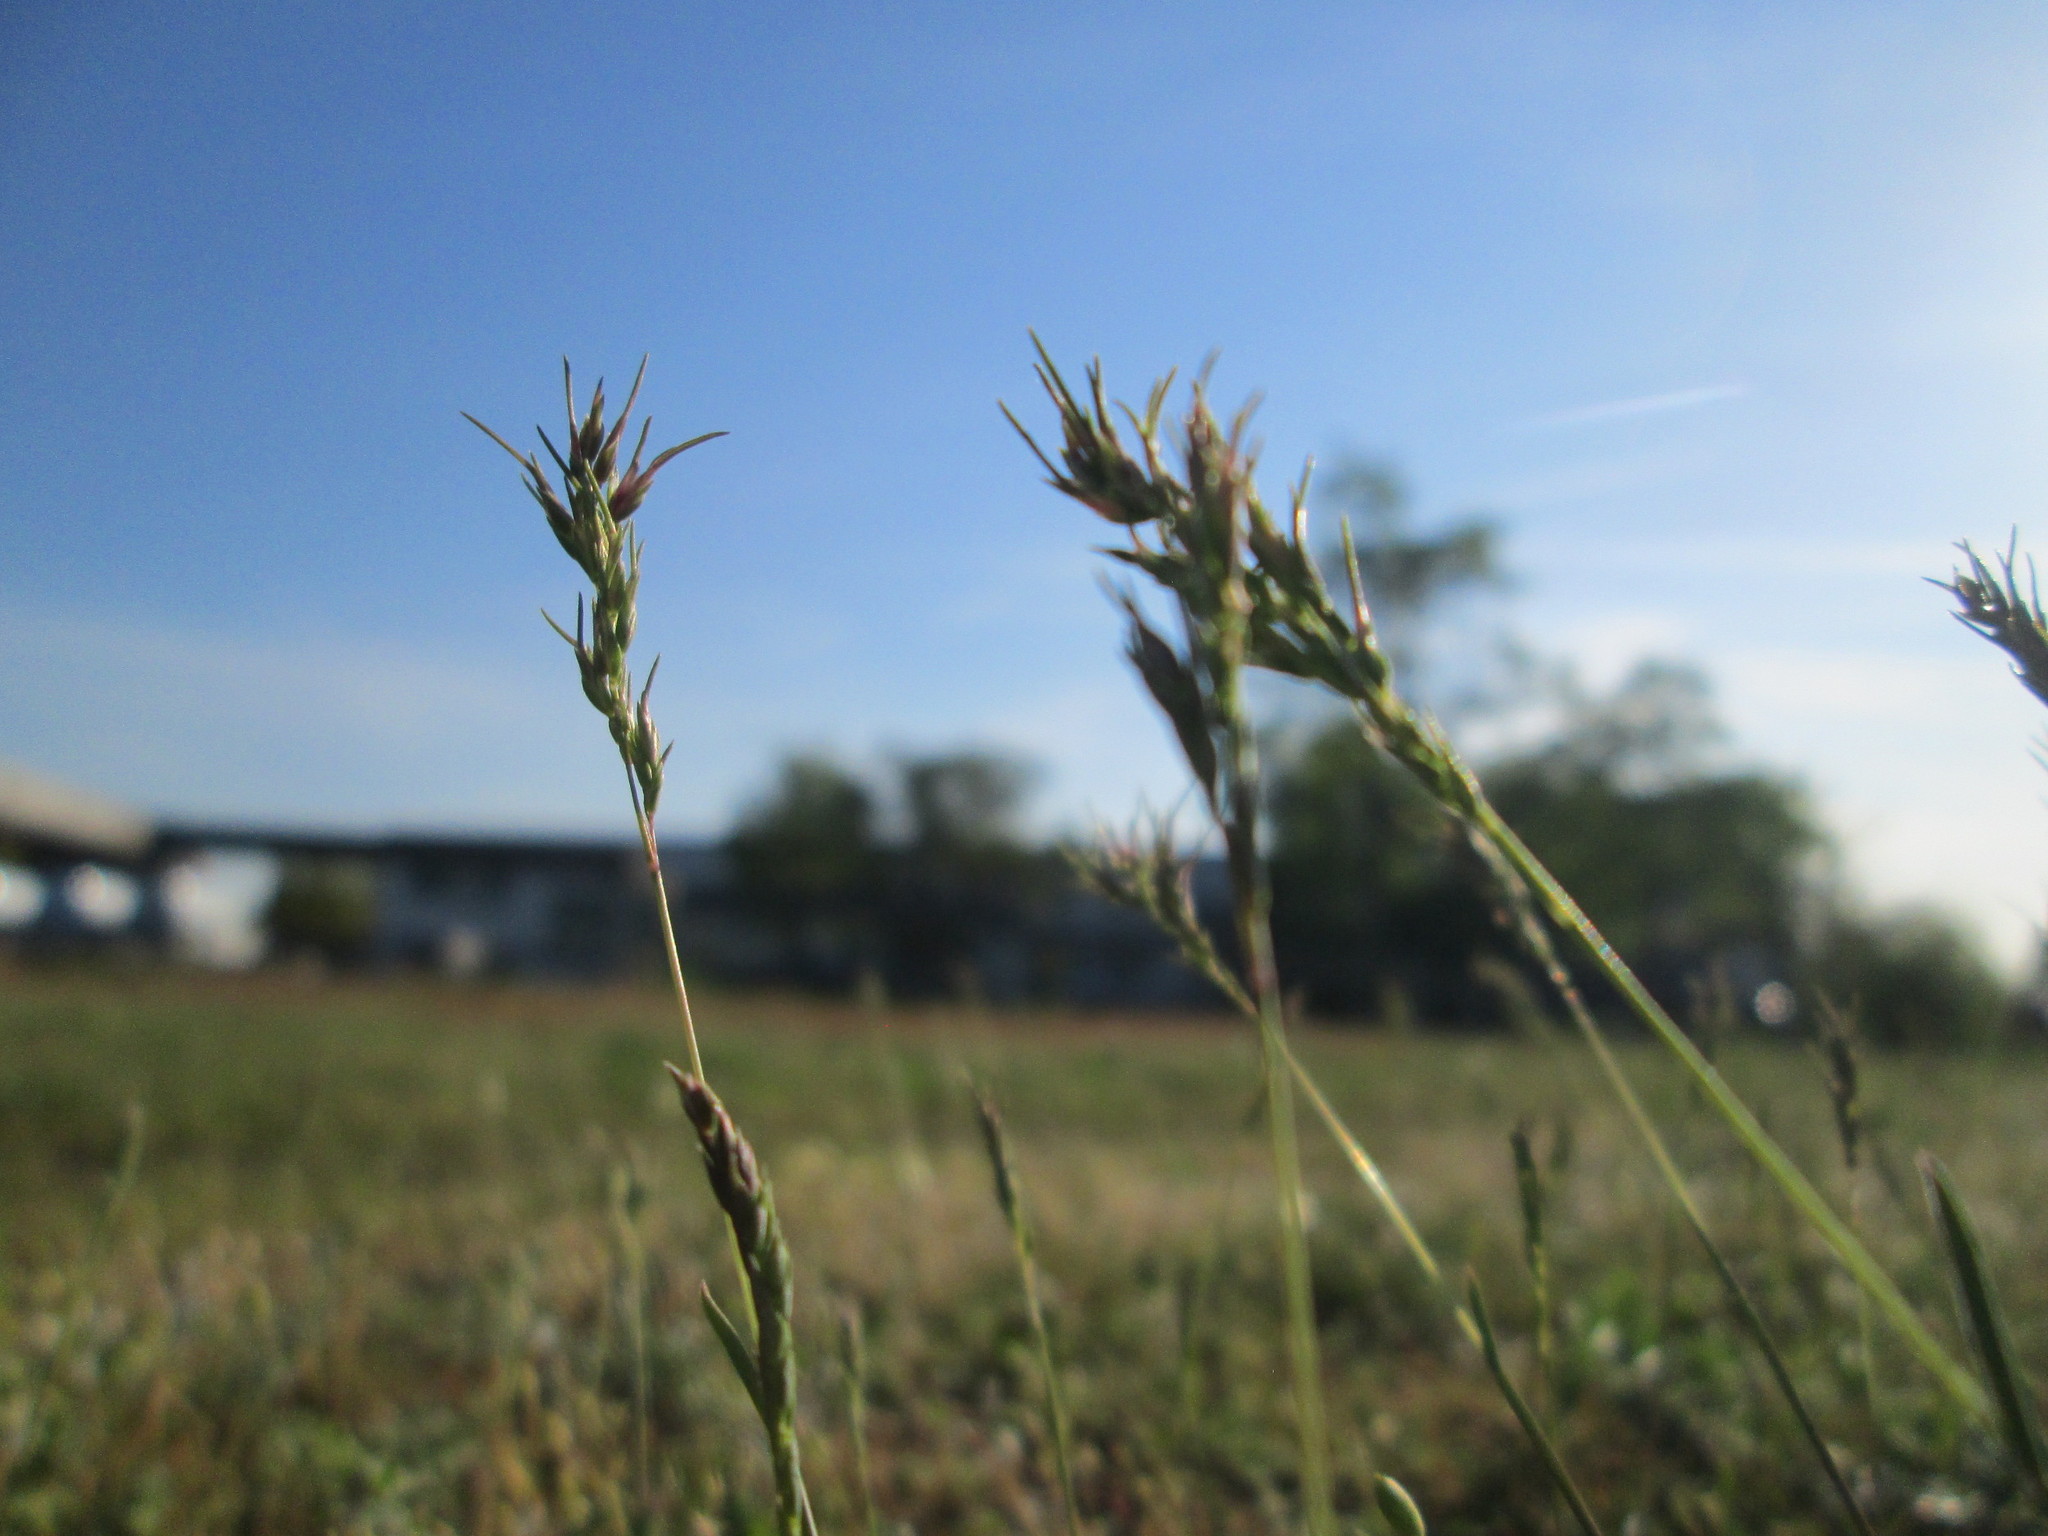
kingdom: Plantae
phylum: Tracheophyta
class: Liliopsida
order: Poales
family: Poaceae
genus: Poa
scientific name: Poa bulbosa
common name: Bulbous bluegrass
